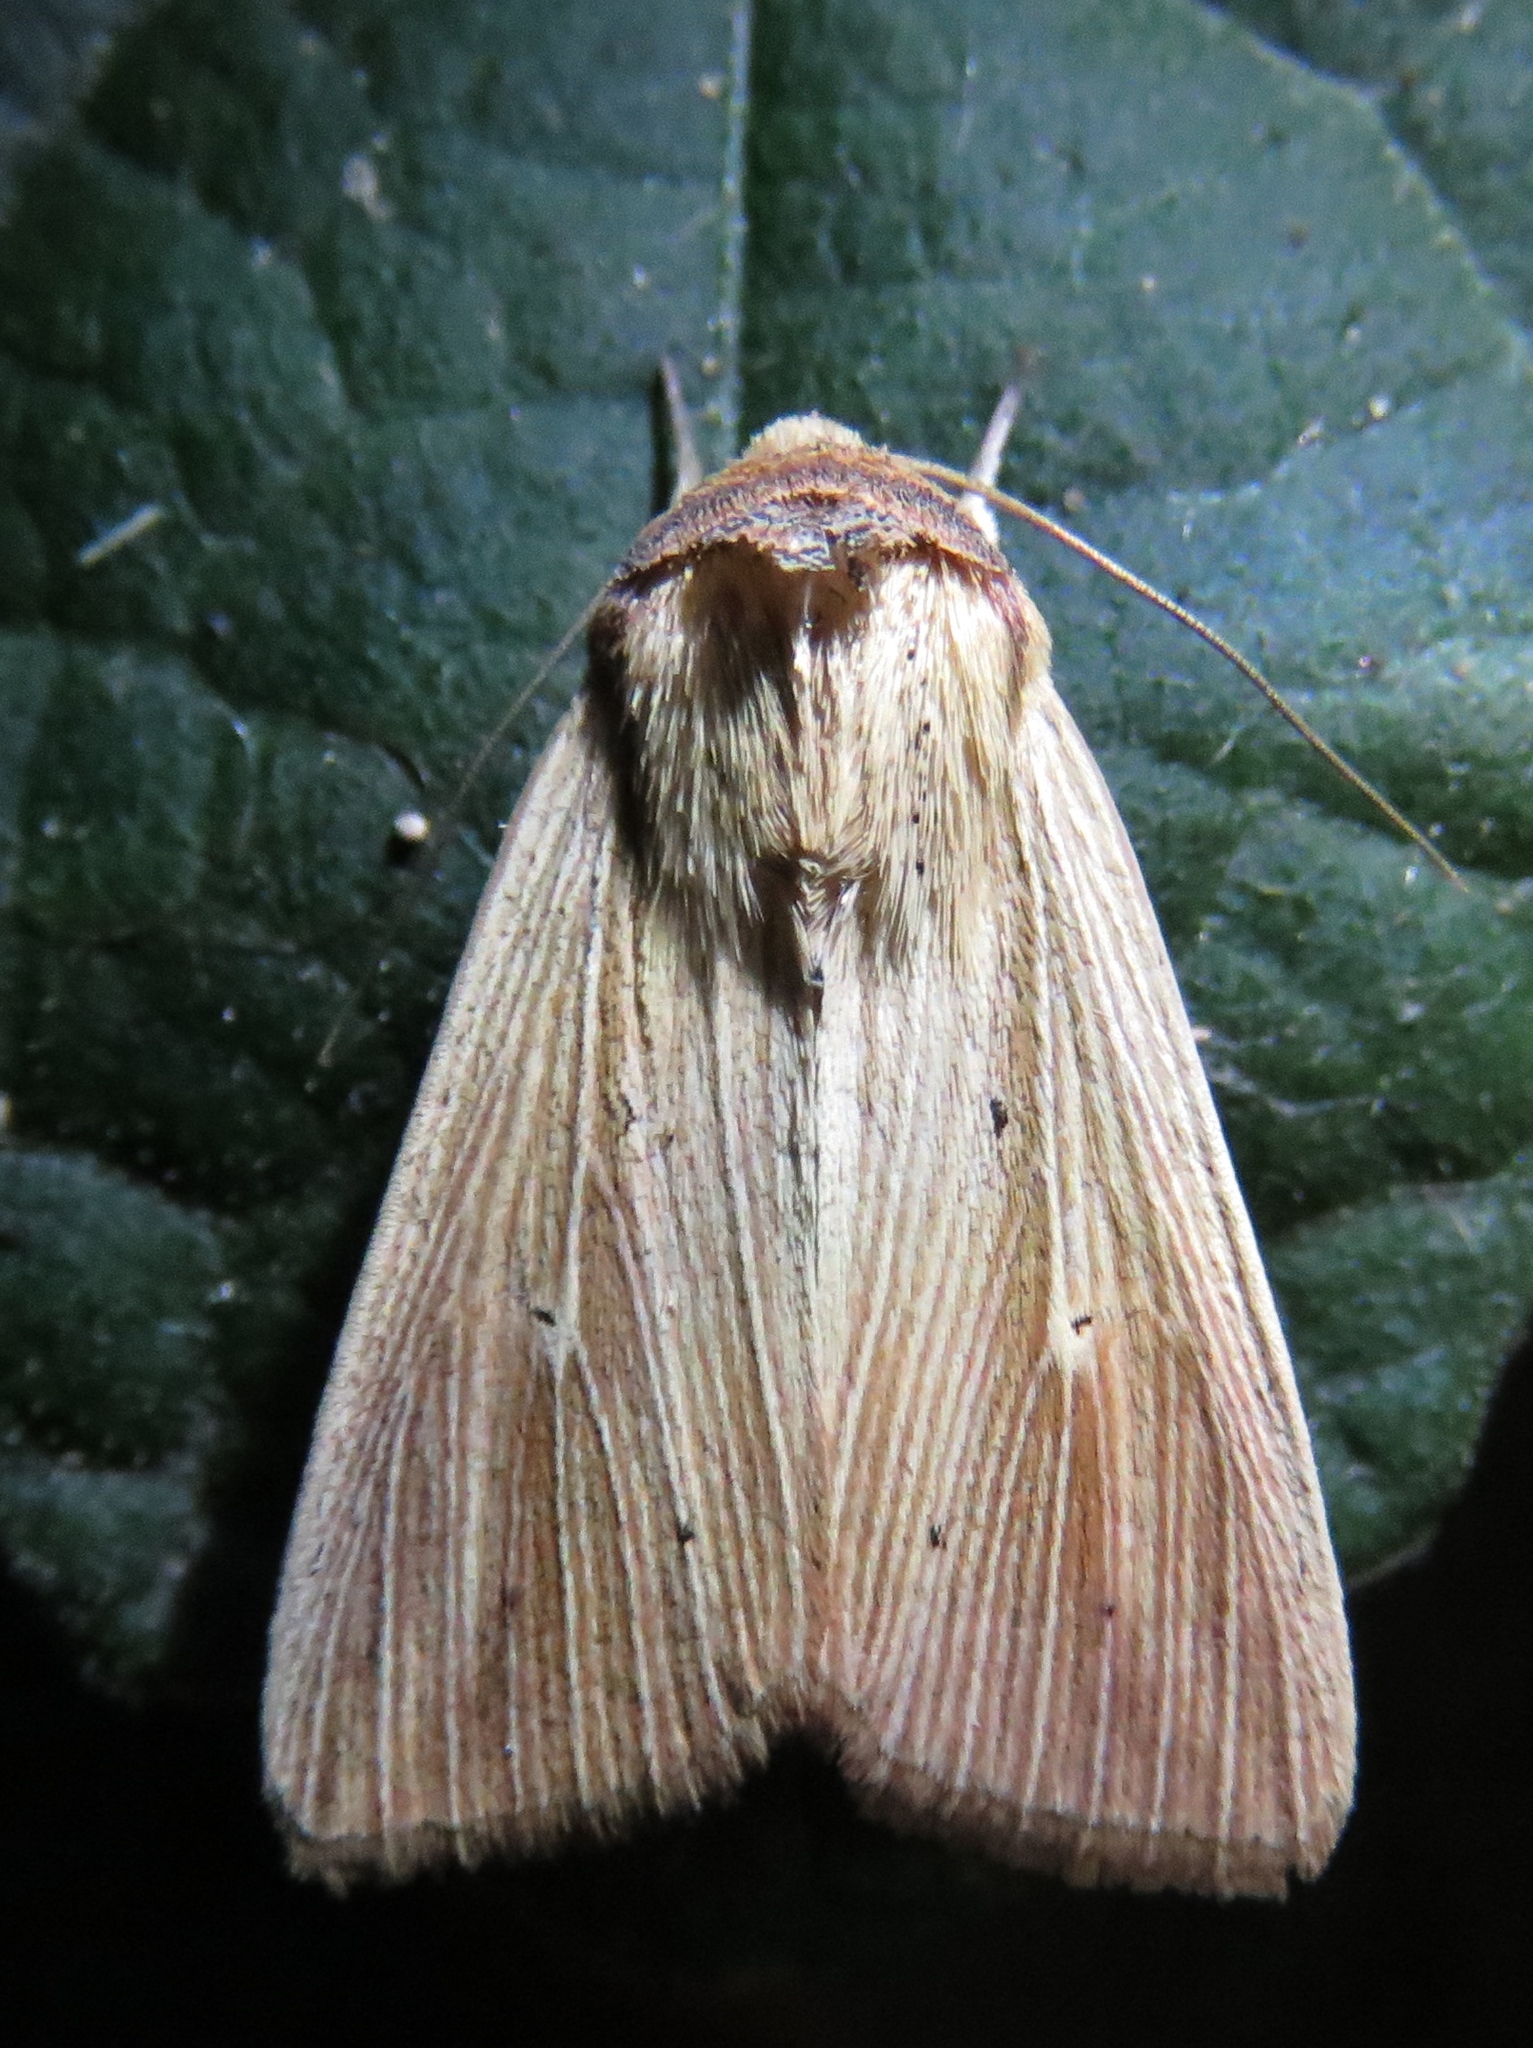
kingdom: Animalia
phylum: Arthropoda
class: Insecta
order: Lepidoptera
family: Noctuidae
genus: Leucania
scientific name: Leucania adjuta
